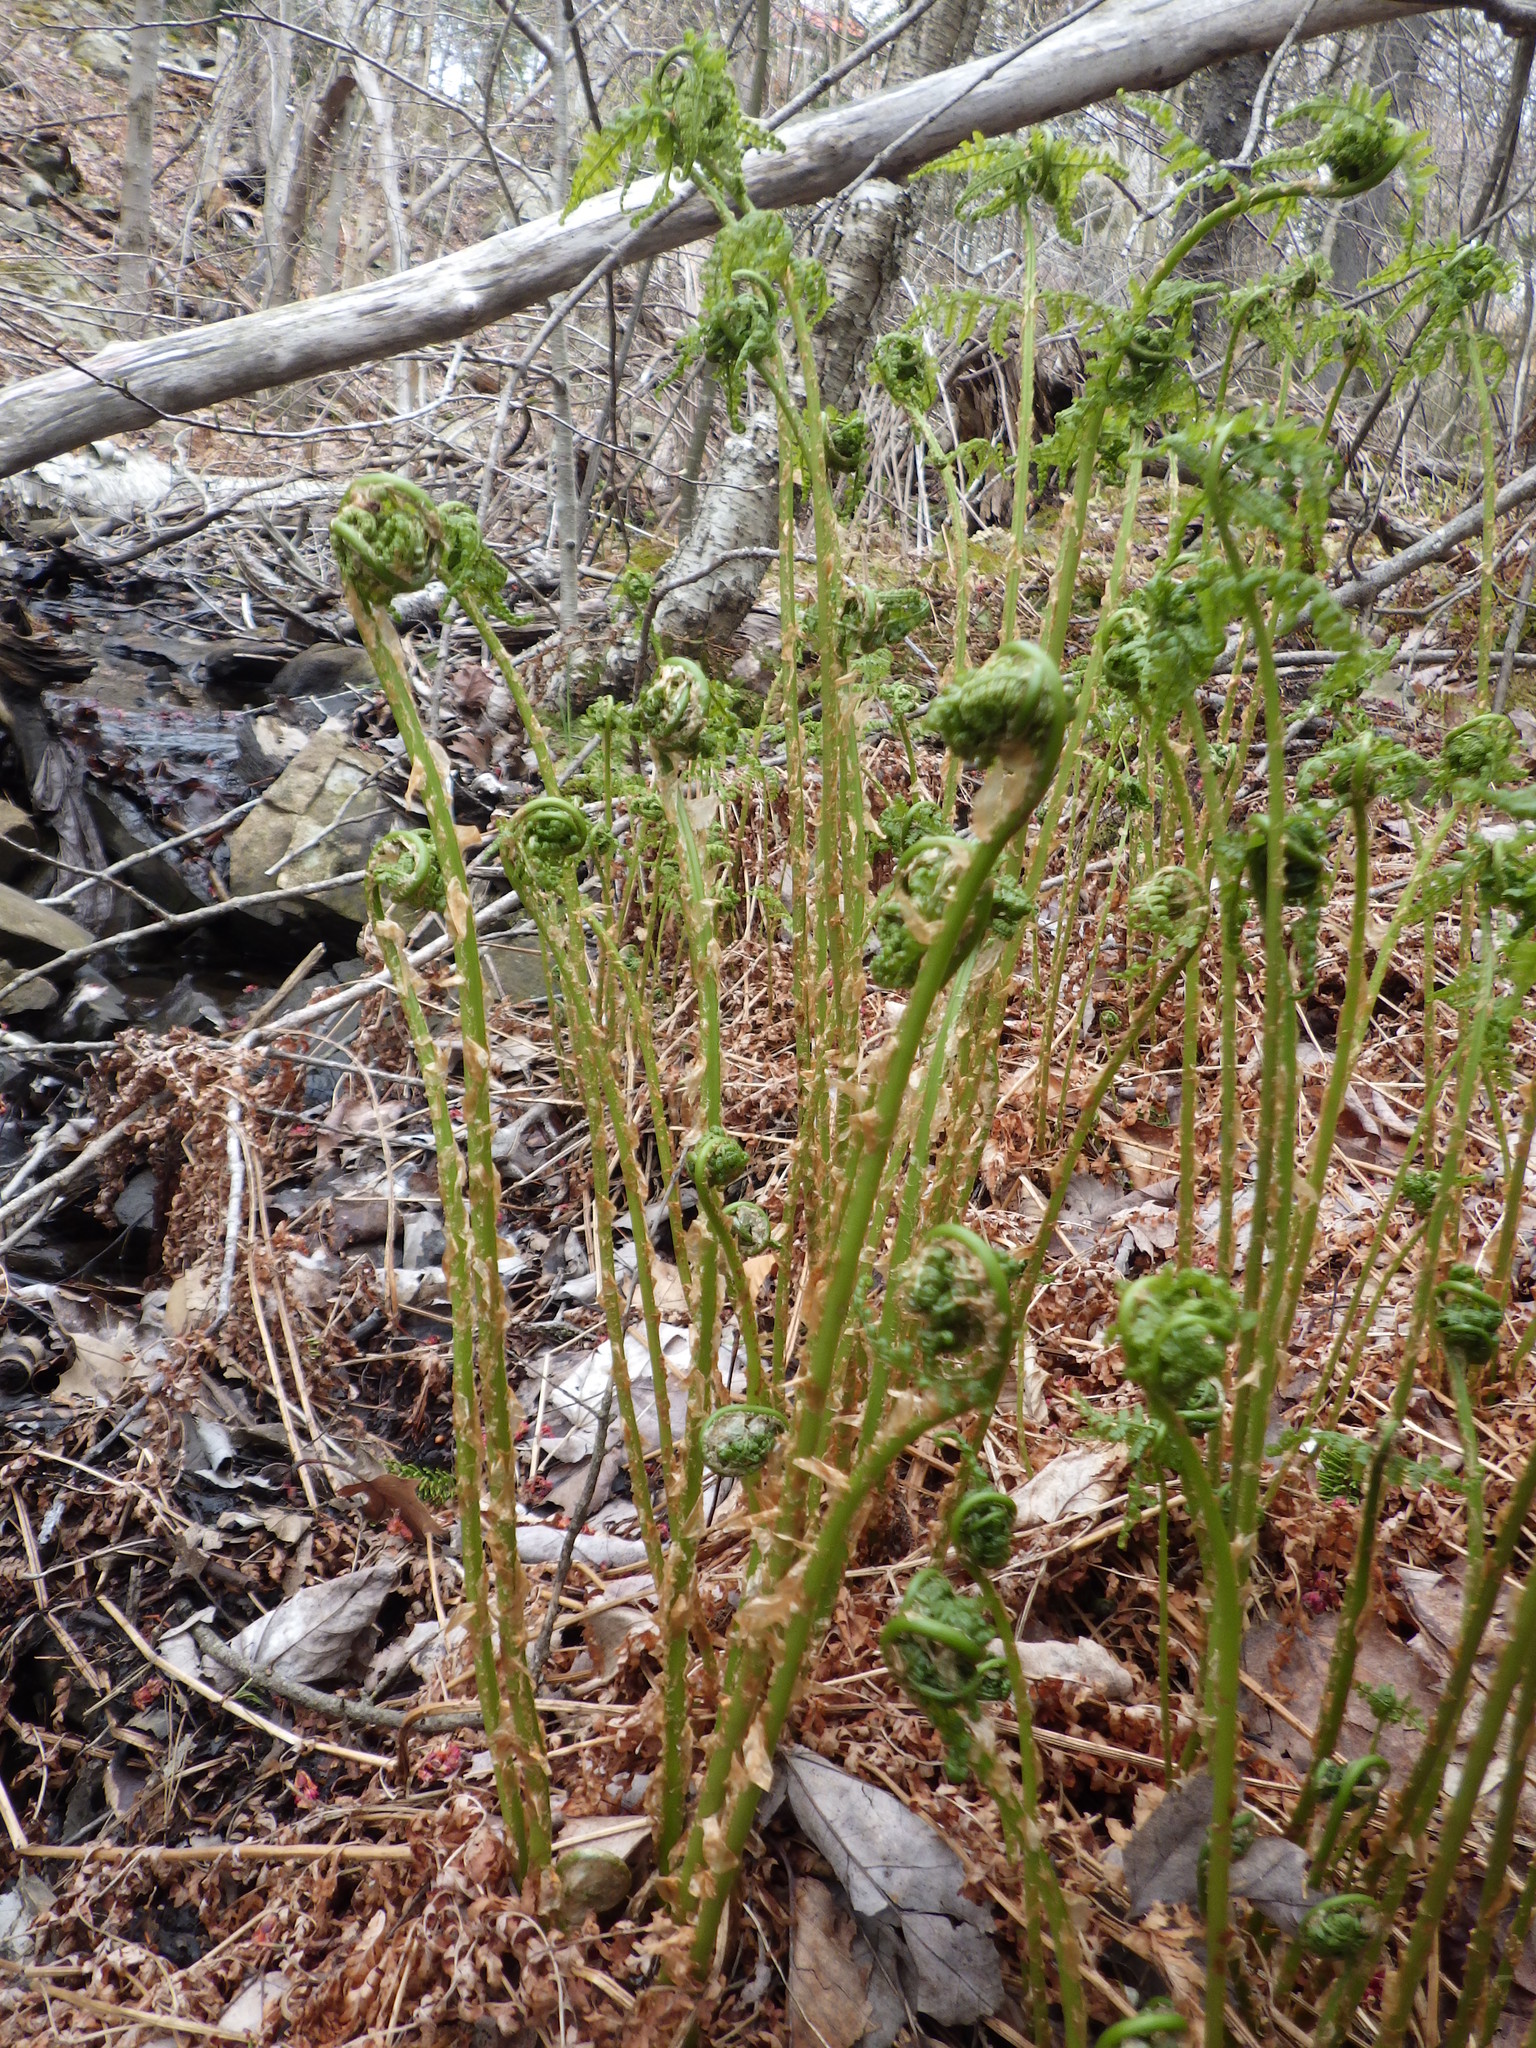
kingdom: Plantae
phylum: Tracheophyta
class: Polypodiopsida
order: Polypodiales
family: Athyriaceae
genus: Athyrium
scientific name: Athyrium angustum
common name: Northern lady fern
